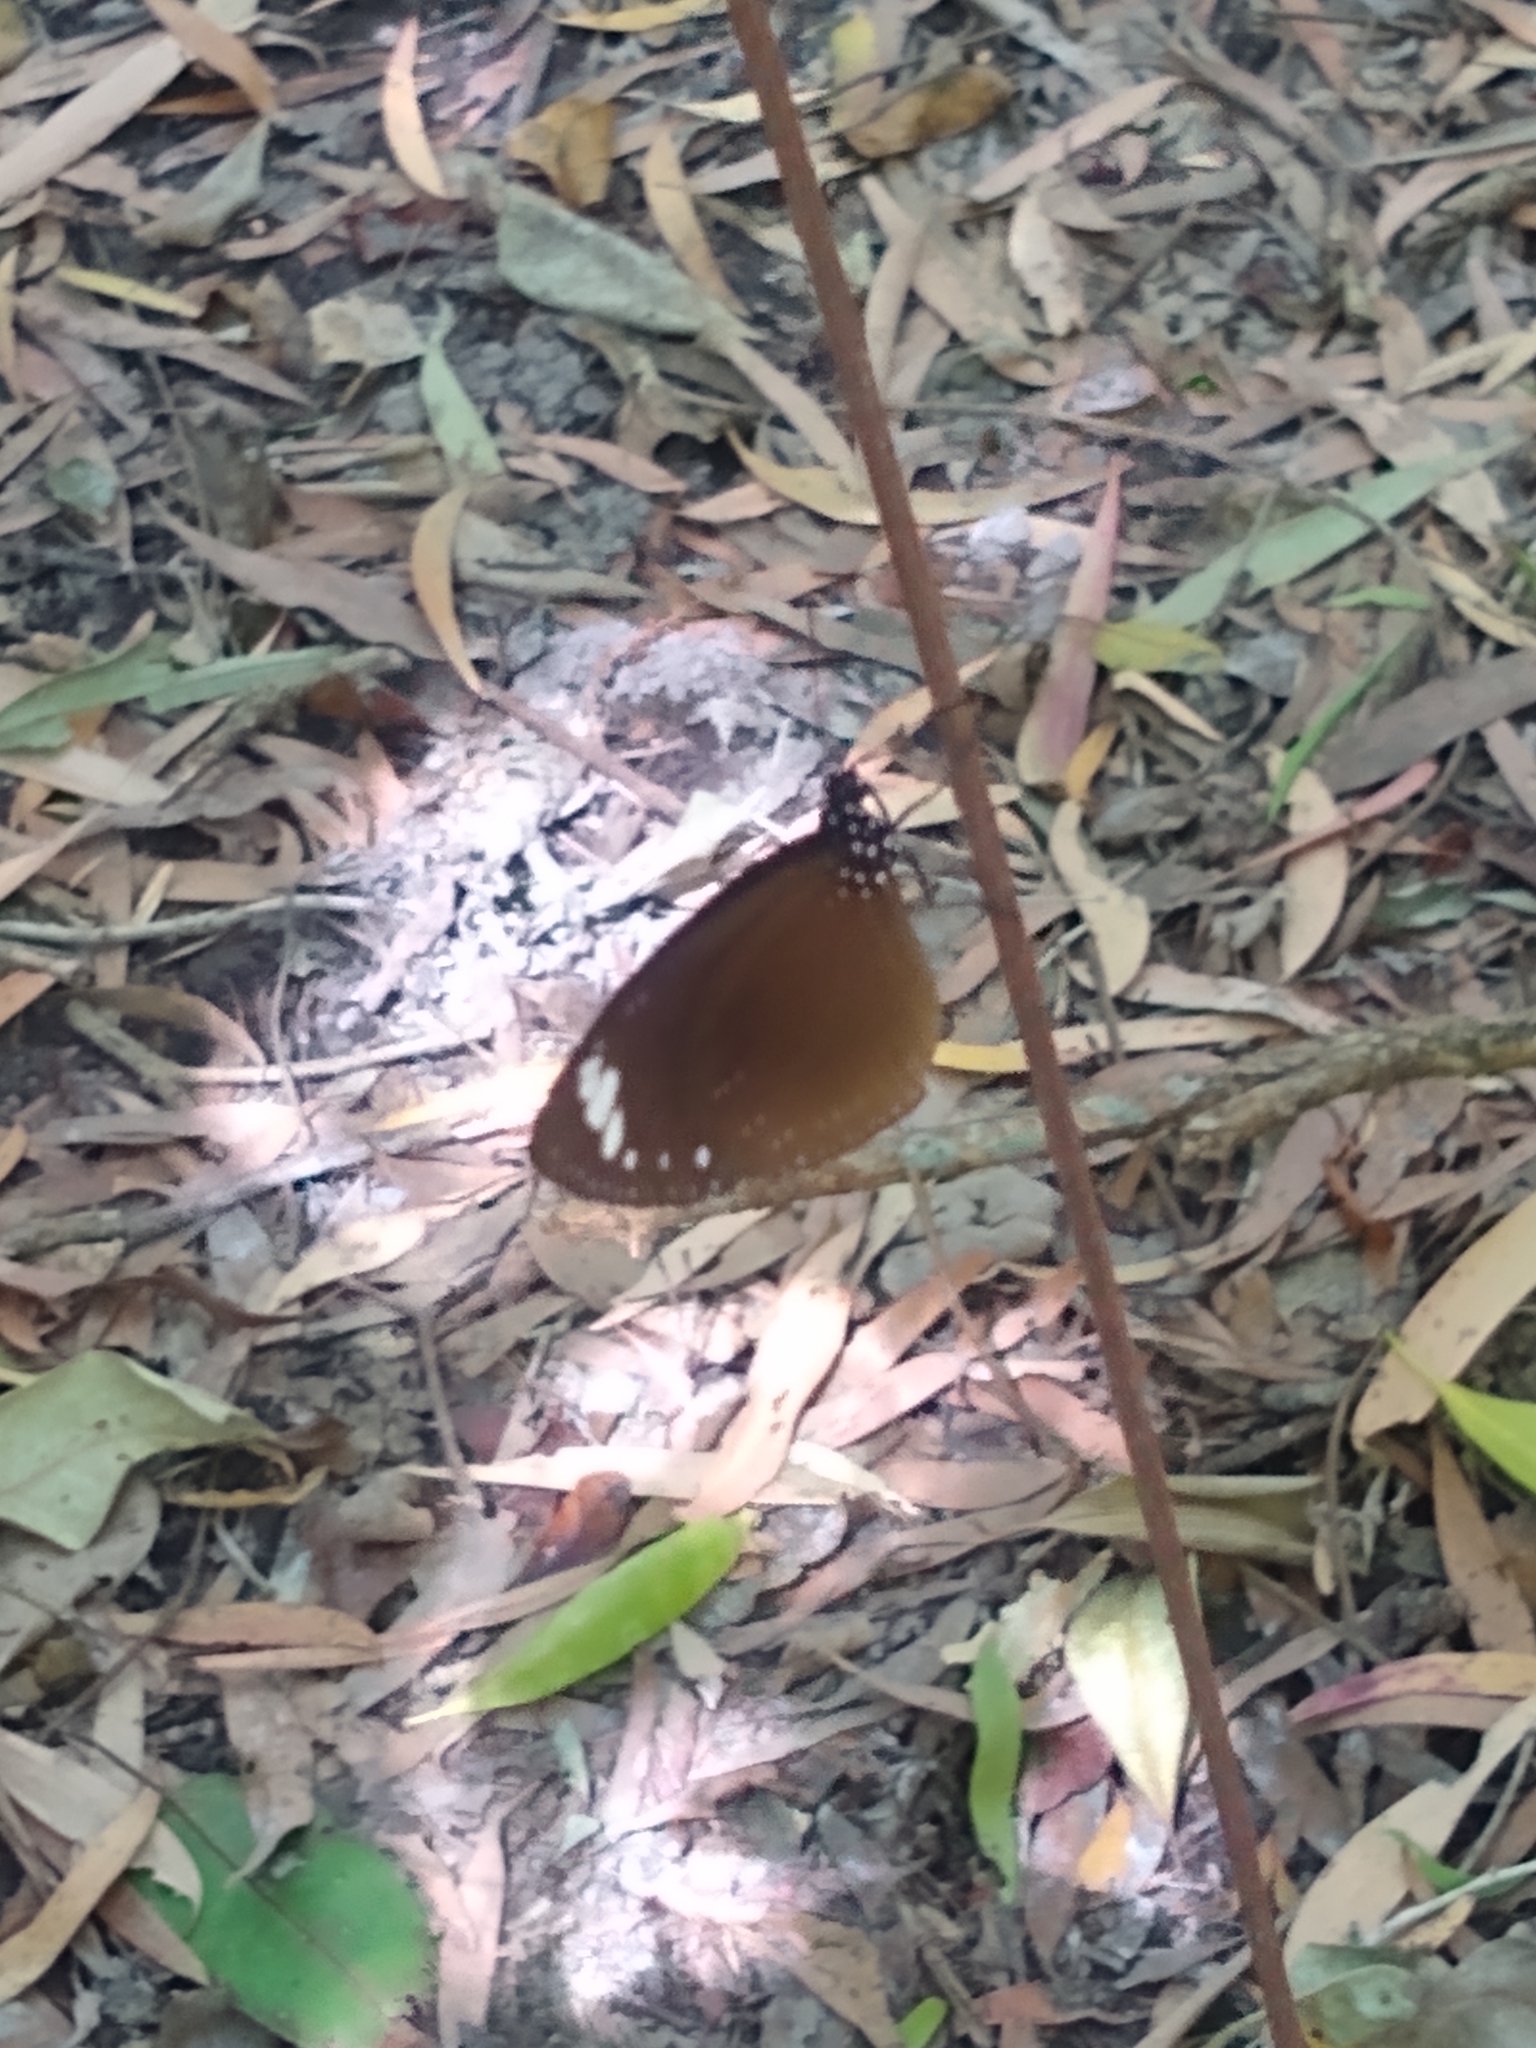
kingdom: Animalia
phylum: Arthropoda
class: Insecta
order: Lepidoptera
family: Nymphalidae
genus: Euploea
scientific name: Euploea tulliolus
